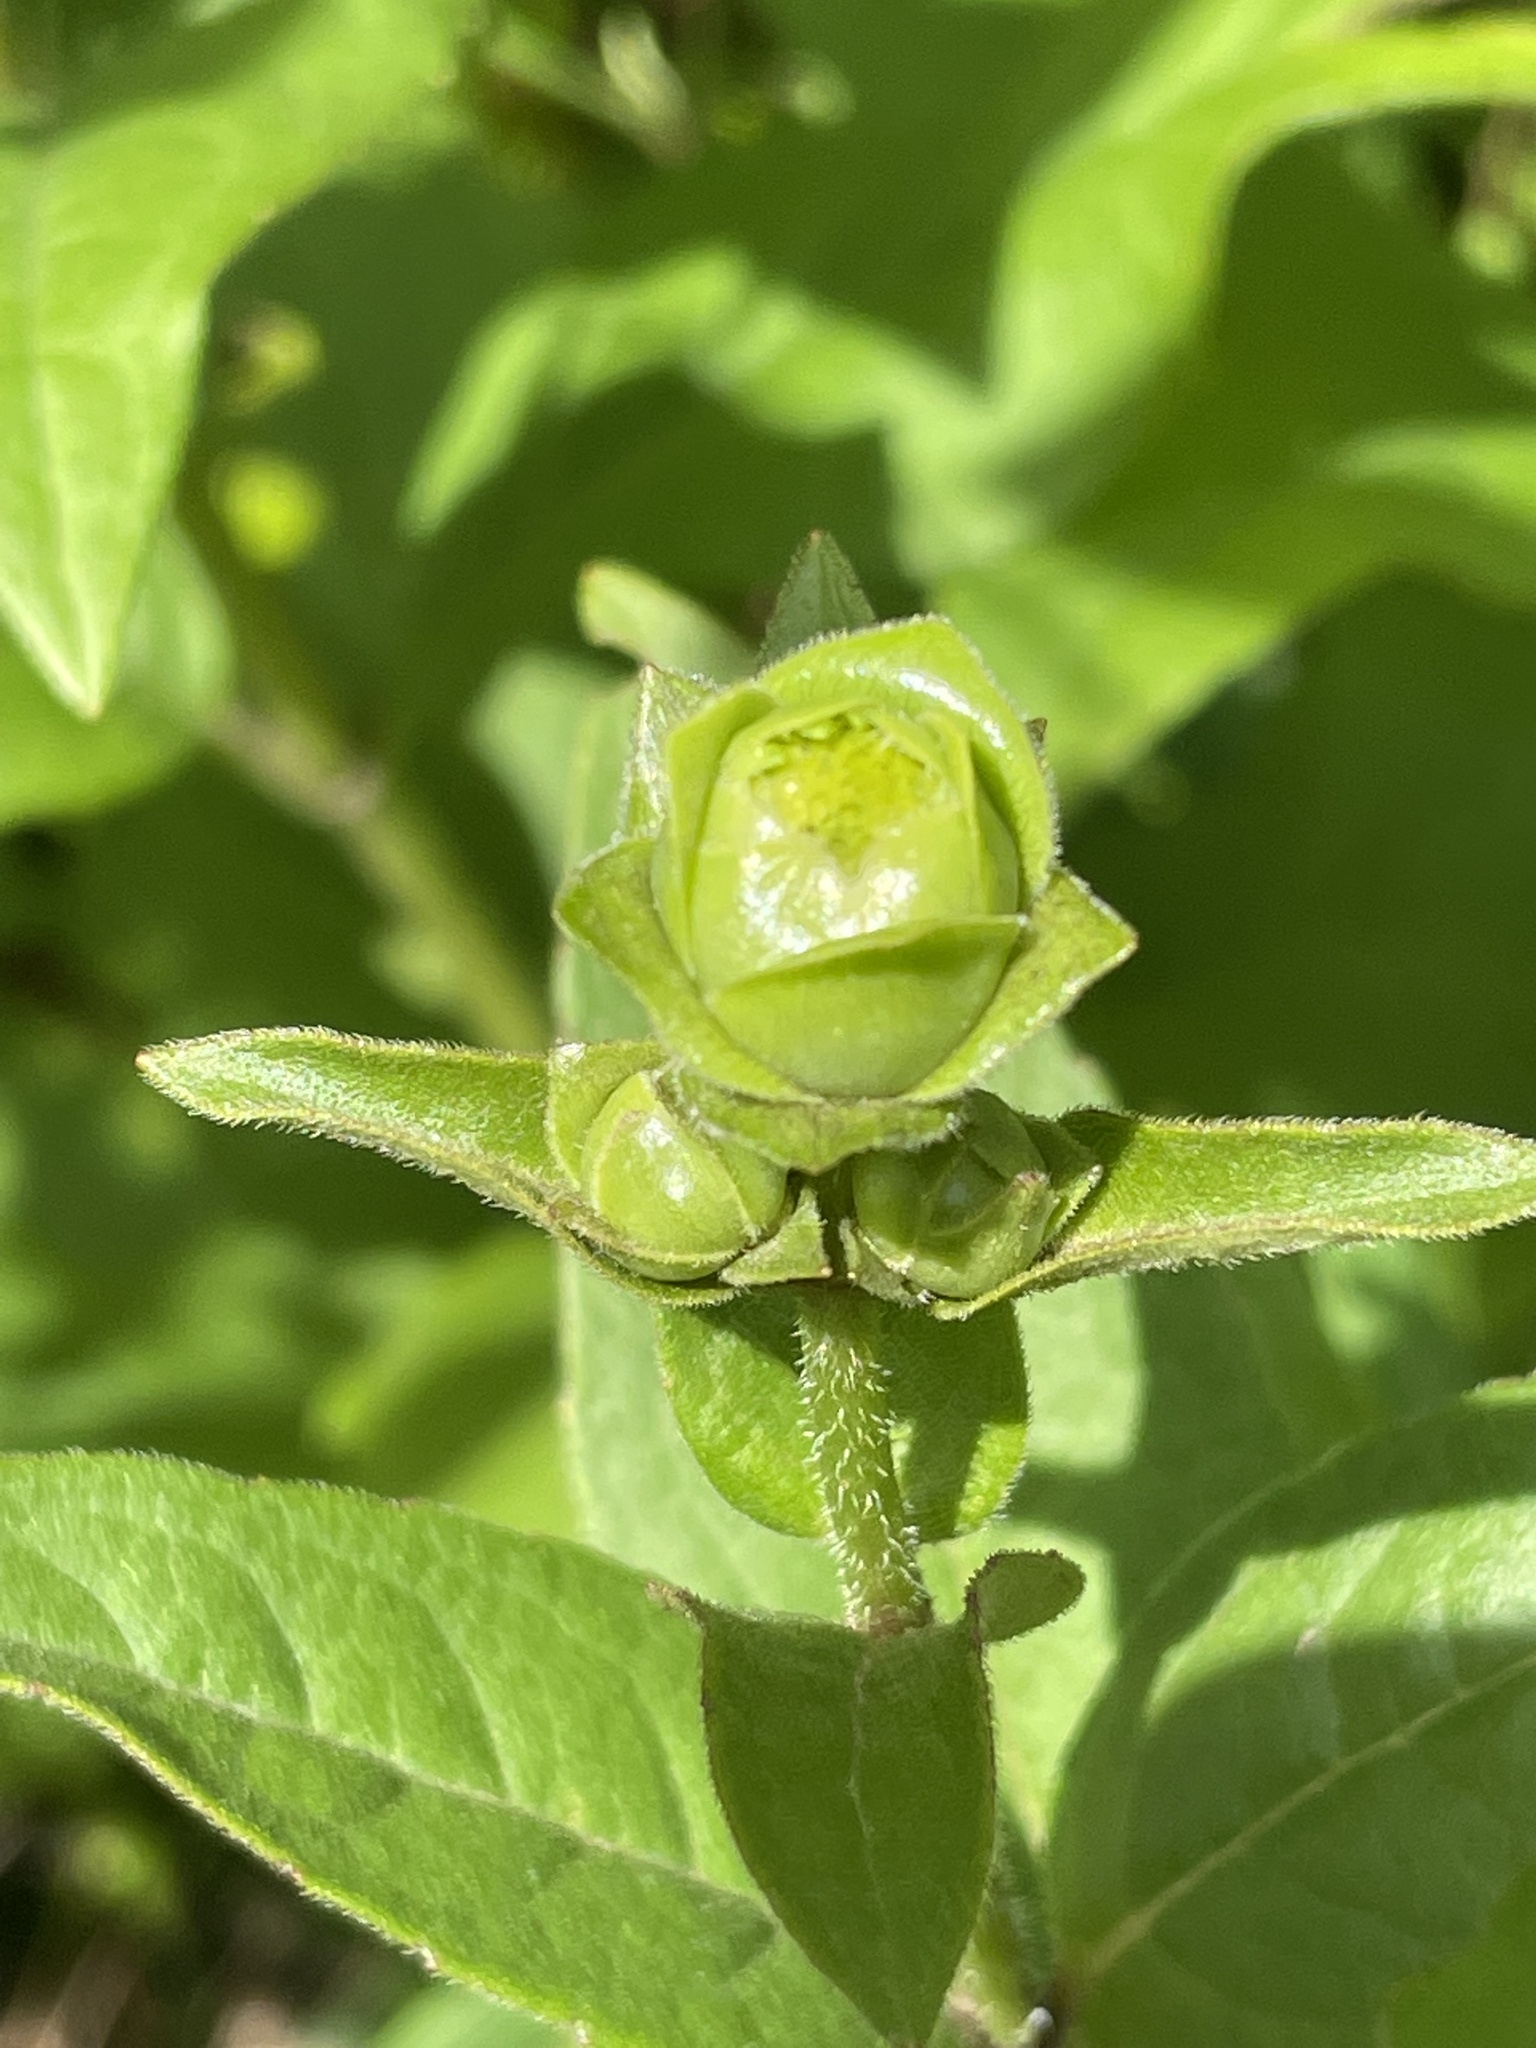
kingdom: Plantae
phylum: Tracheophyta
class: Magnoliopsida
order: Asterales
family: Asteraceae
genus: Silphium
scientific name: Silphium asteriscus
